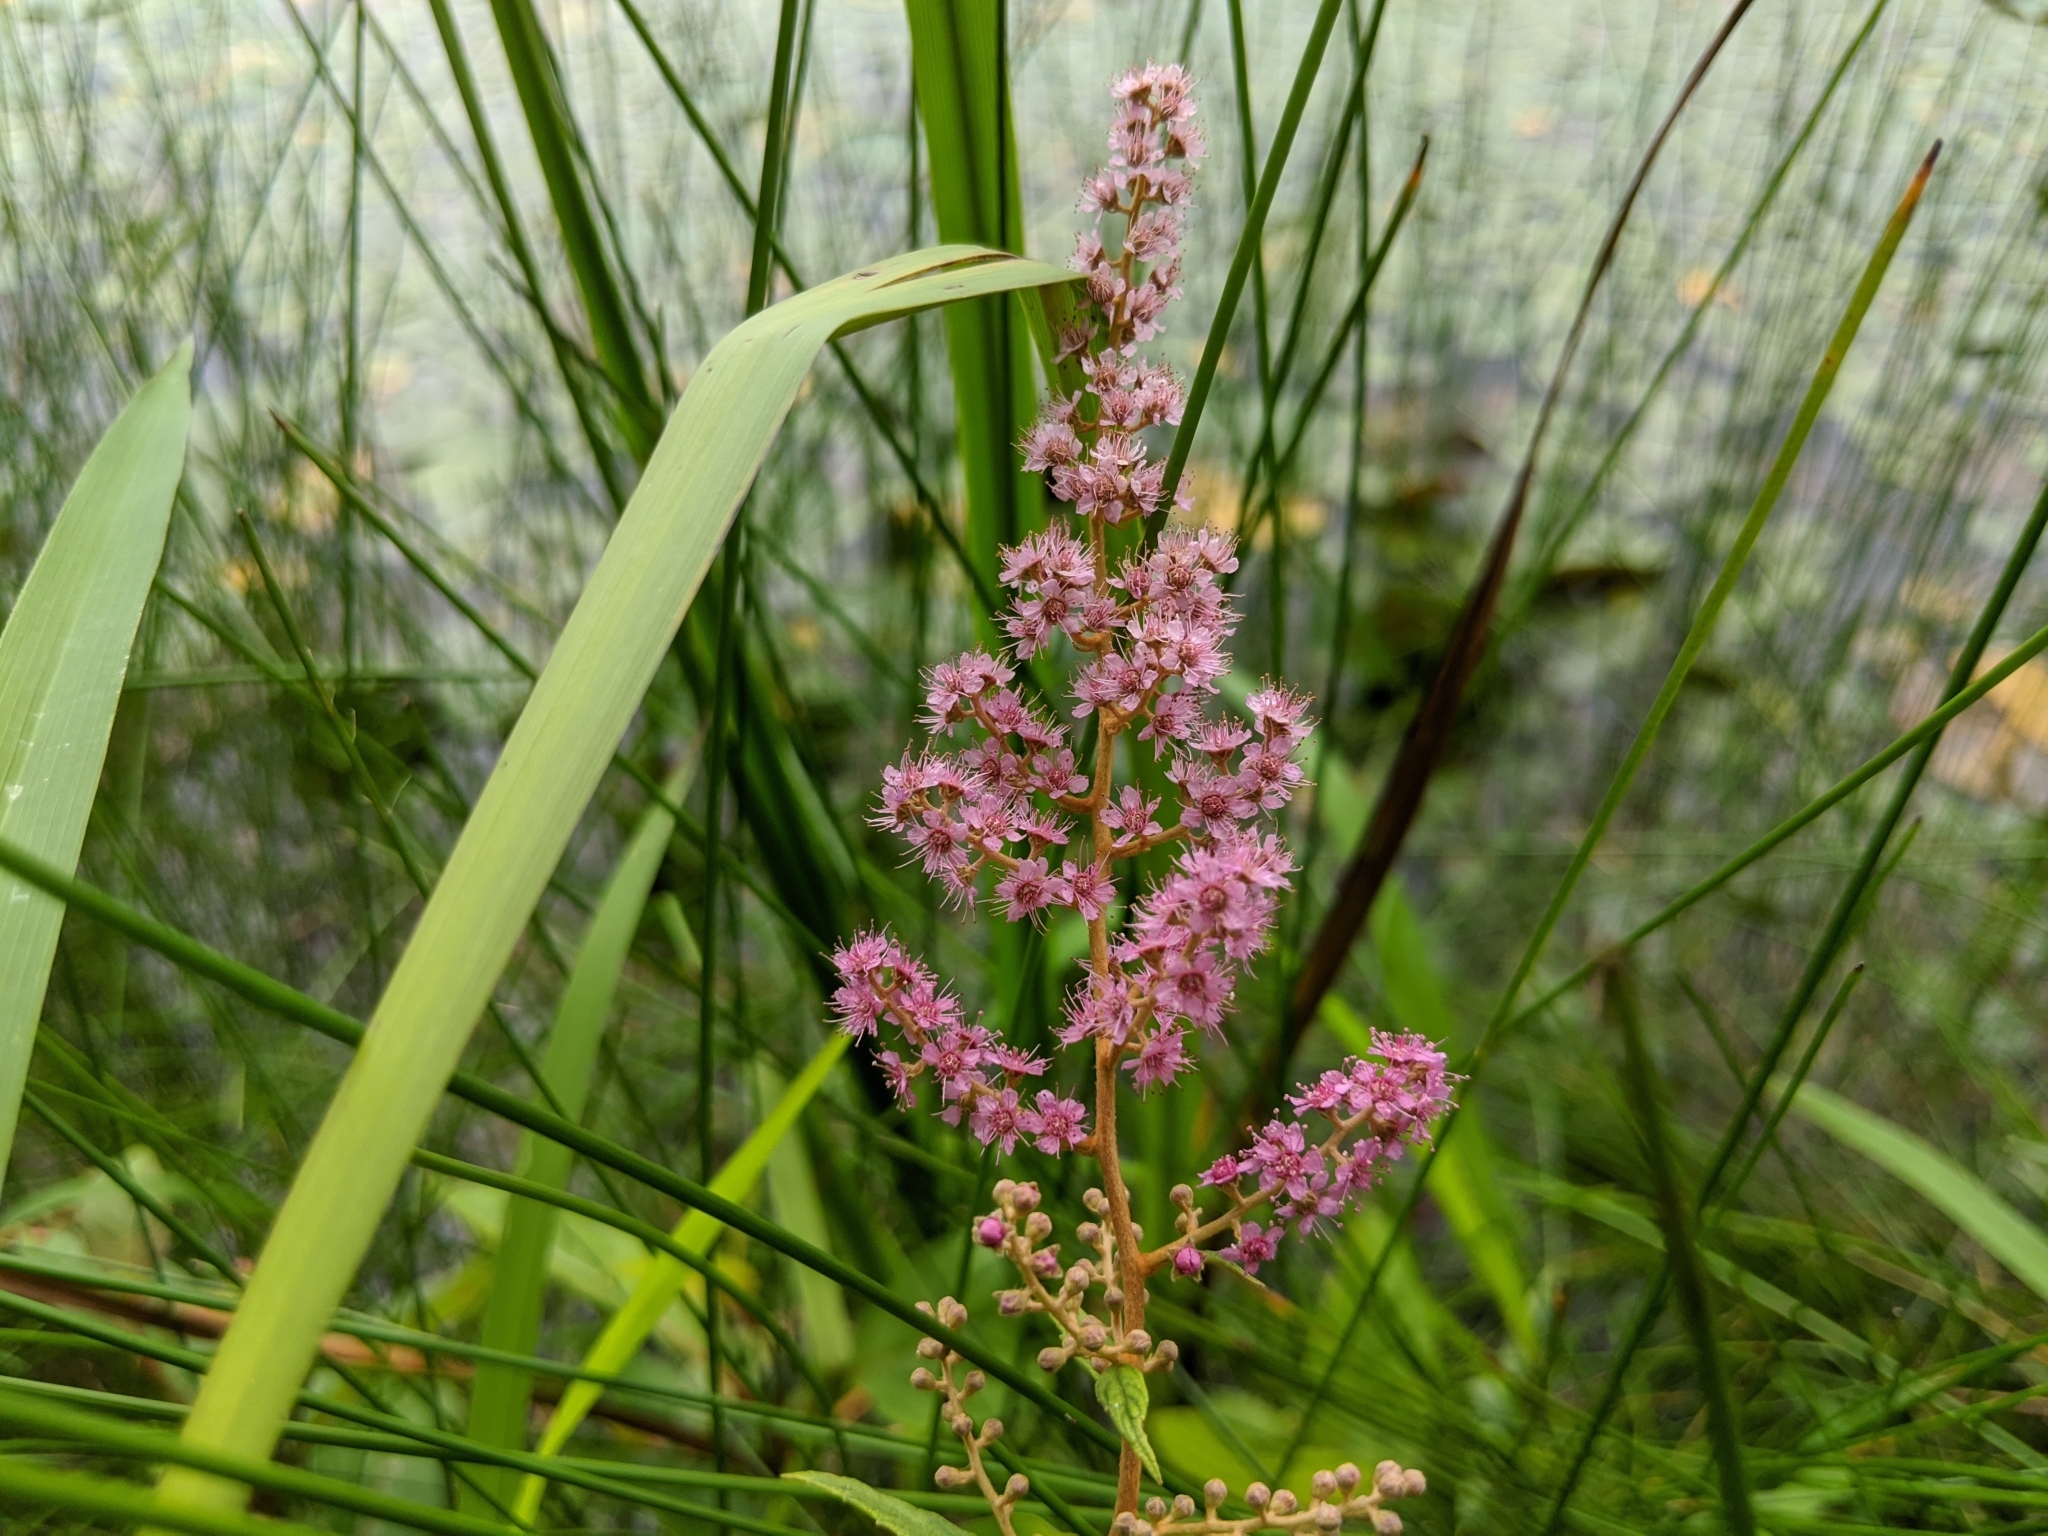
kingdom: Plantae
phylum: Tracheophyta
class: Magnoliopsida
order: Rosales
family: Rosaceae
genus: Spiraea
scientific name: Spiraea tomentosa
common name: Hardhack
